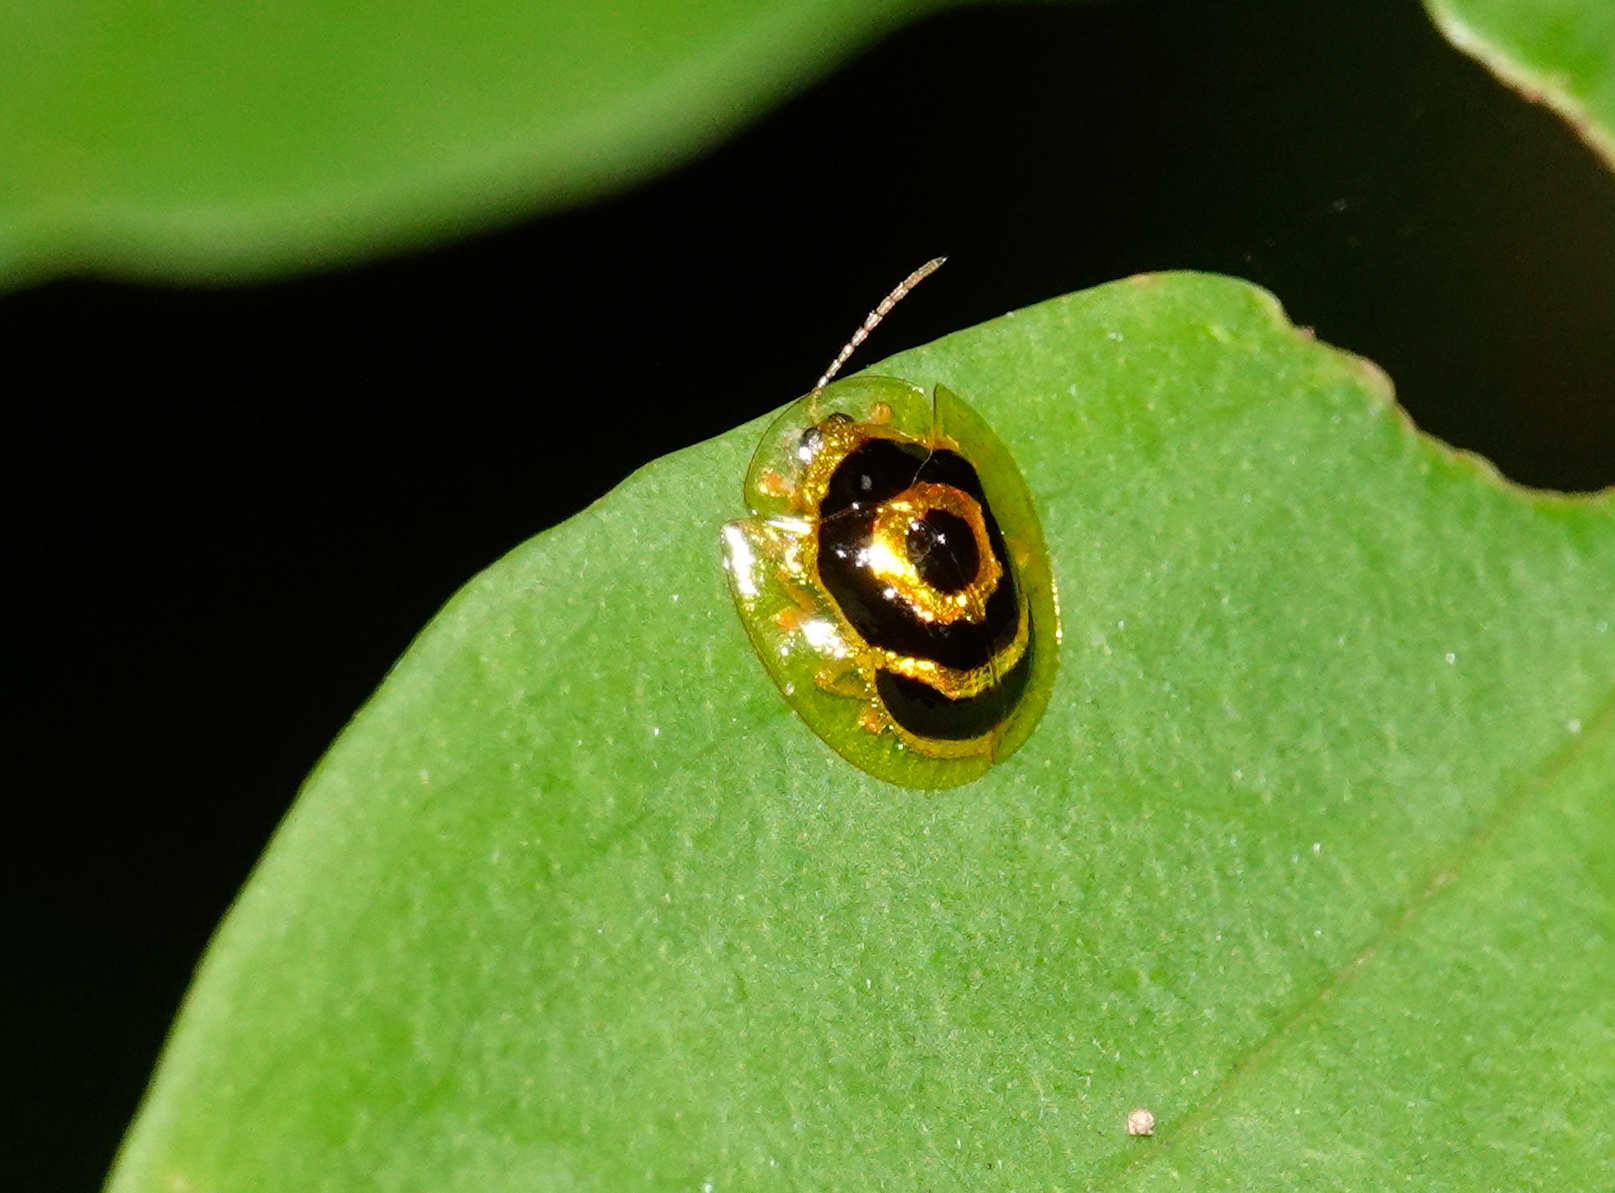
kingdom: Animalia
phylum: Arthropoda
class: Insecta
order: Coleoptera
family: Chrysomelidae
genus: Ischnocodia
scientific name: Ischnocodia annulus
